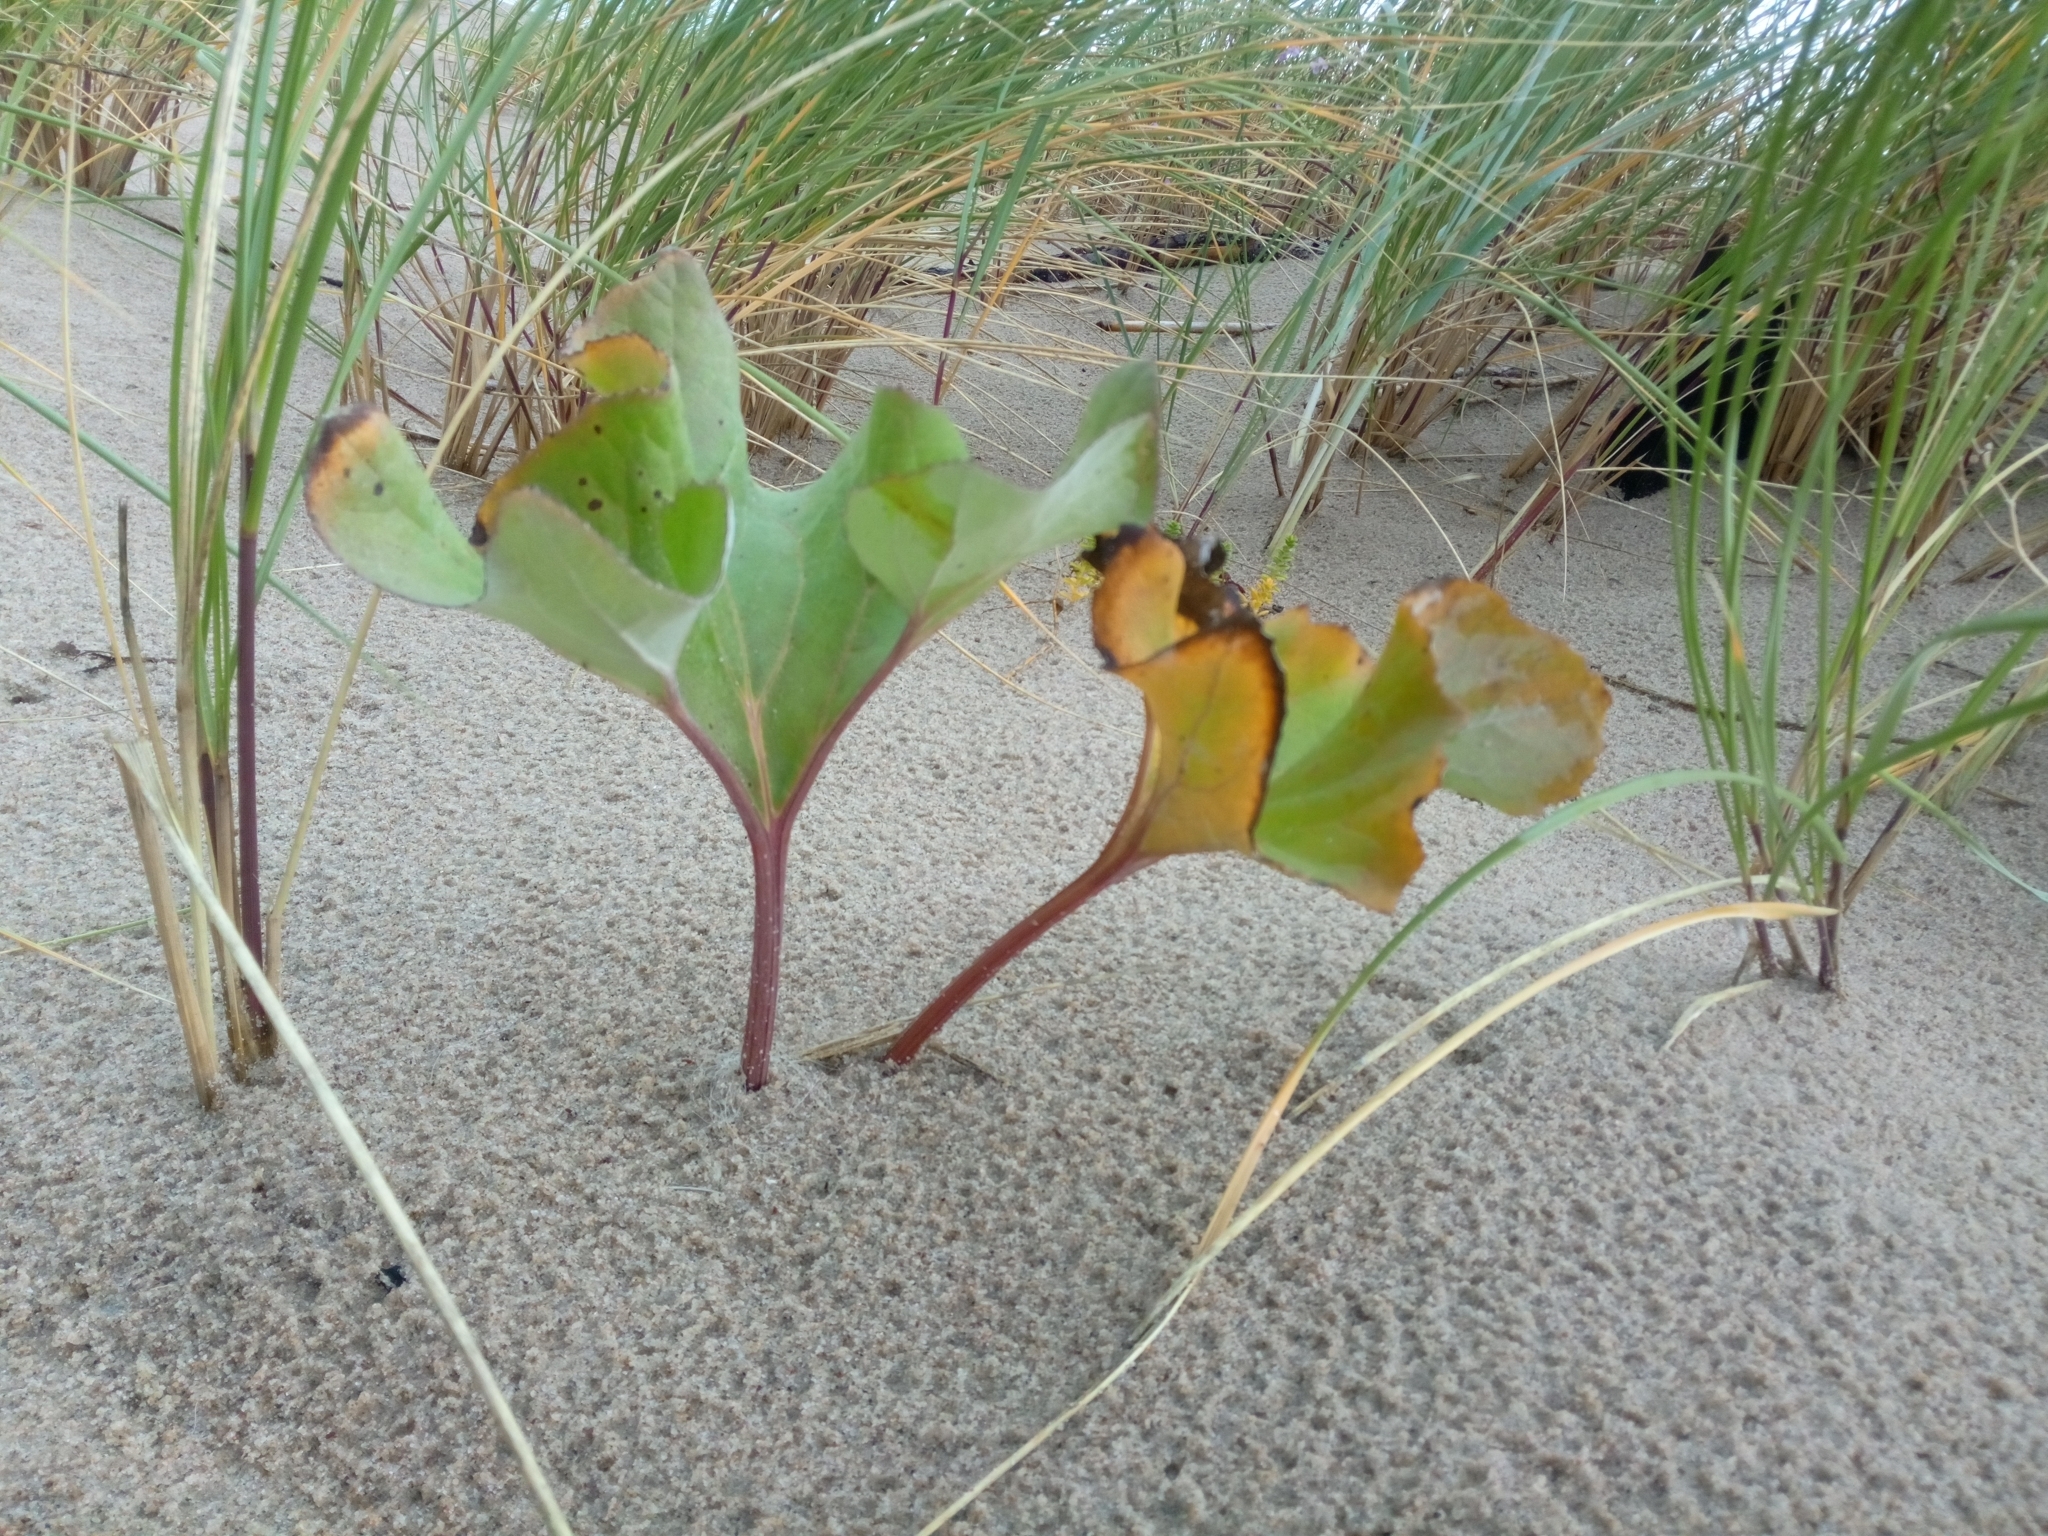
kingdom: Plantae
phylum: Tracheophyta
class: Magnoliopsida
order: Asterales
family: Asteraceae
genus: Petasites
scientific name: Petasites spurius
